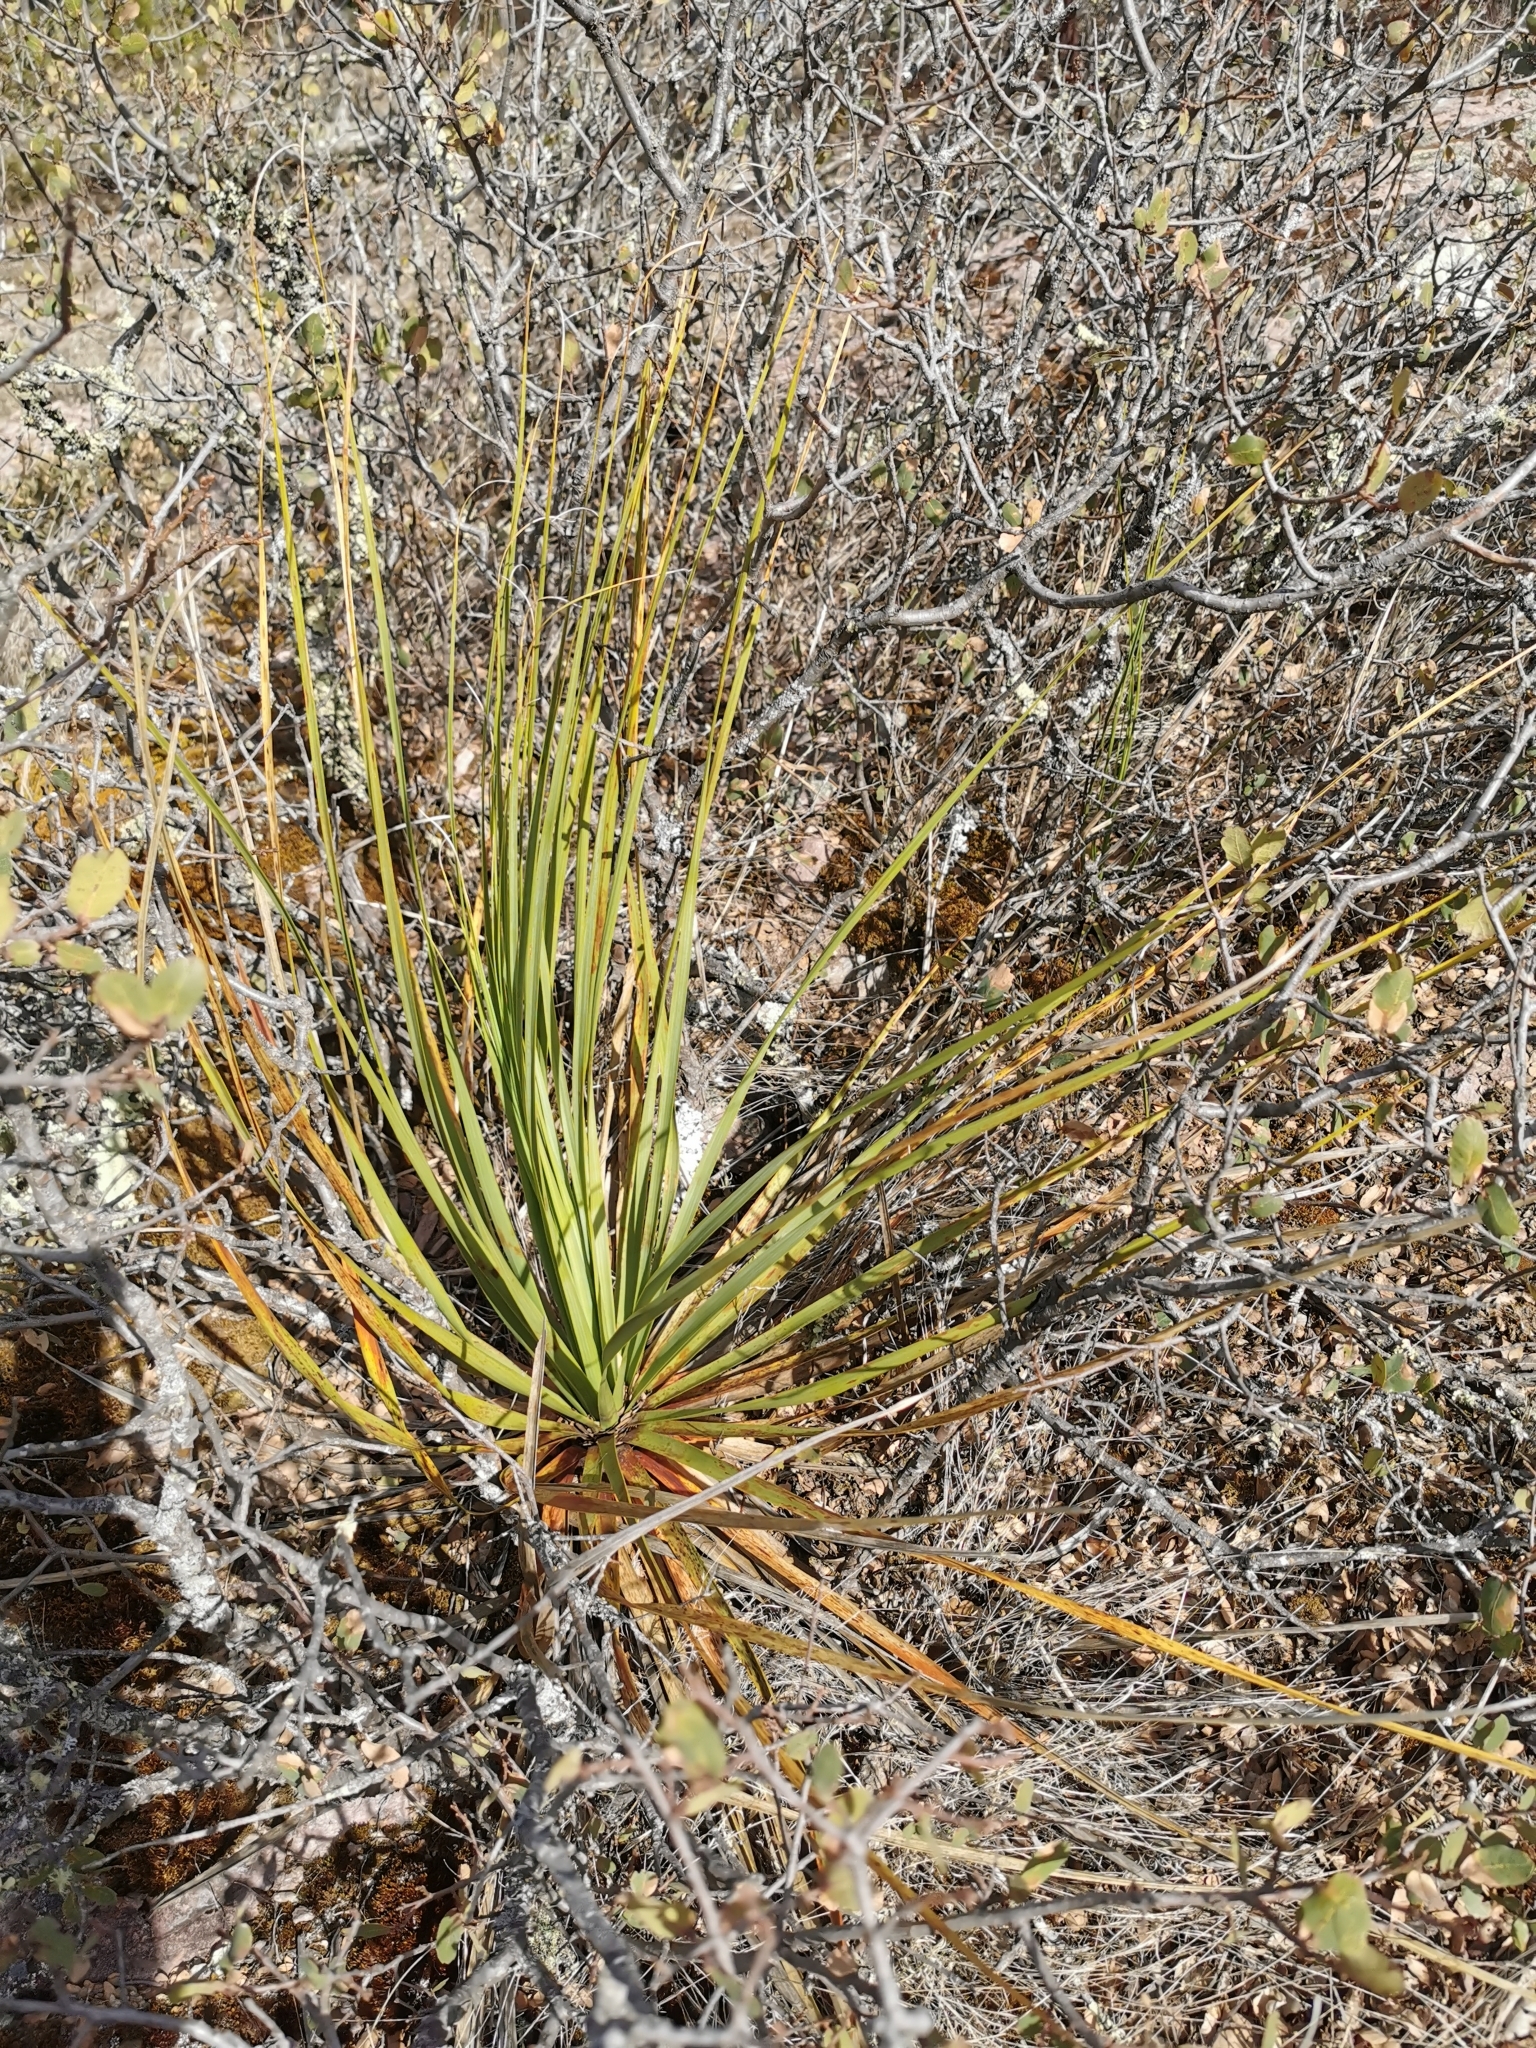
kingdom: Plantae
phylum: Tracheophyta
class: Liliopsida
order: Asparagales
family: Asparagaceae
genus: Nolina
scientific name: Nolina durangensis
